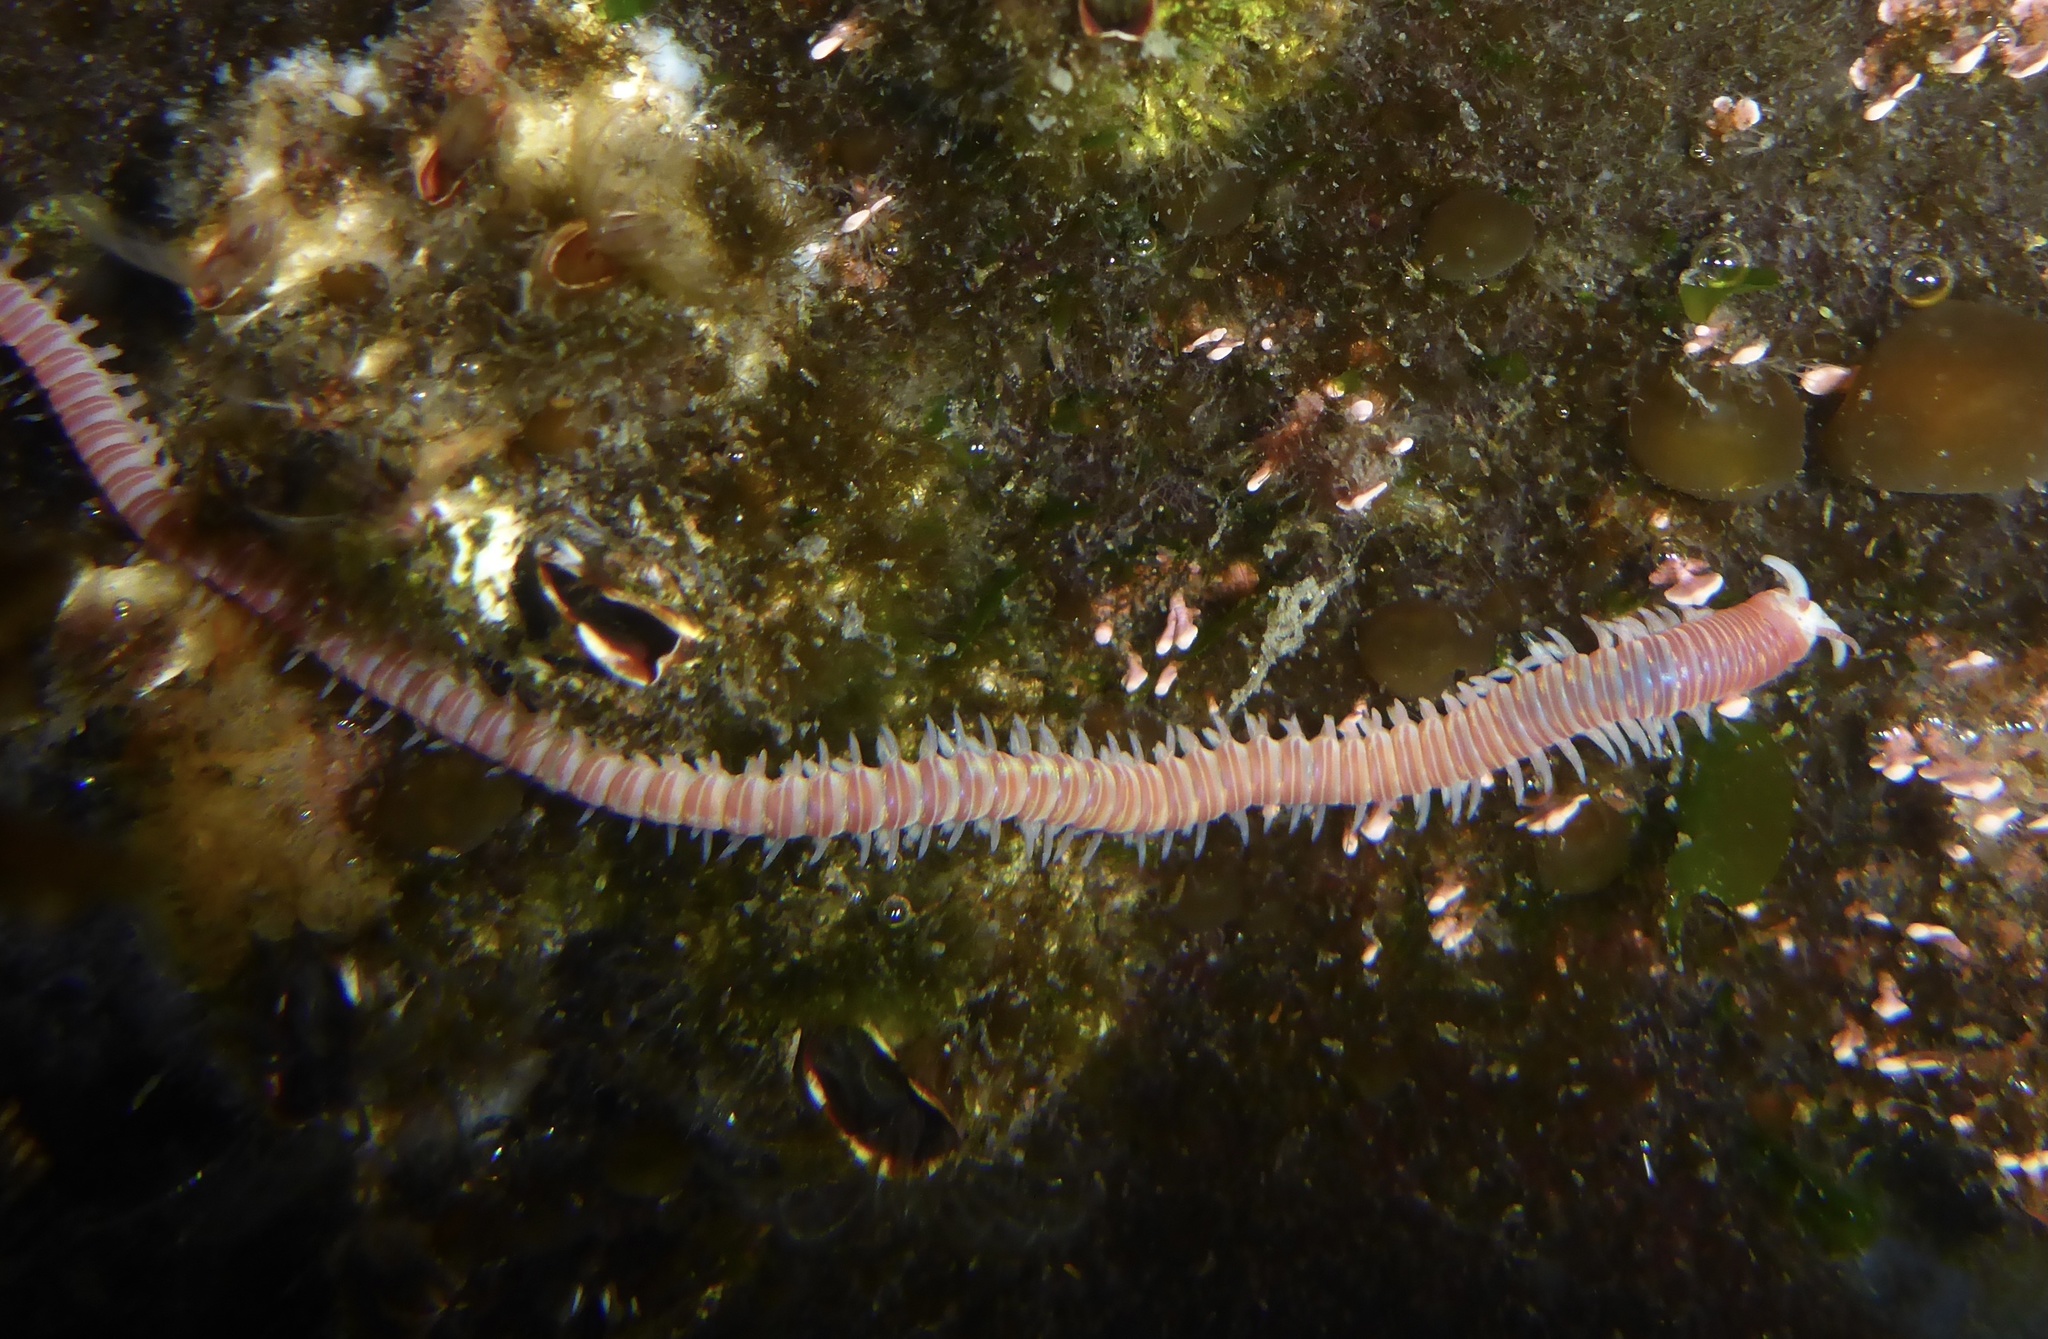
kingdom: Animalia
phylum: Annelida
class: Polychaeta
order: Eunicida
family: Dorvilleidae
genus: Dorvillea
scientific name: Dorvillea moniloceras
